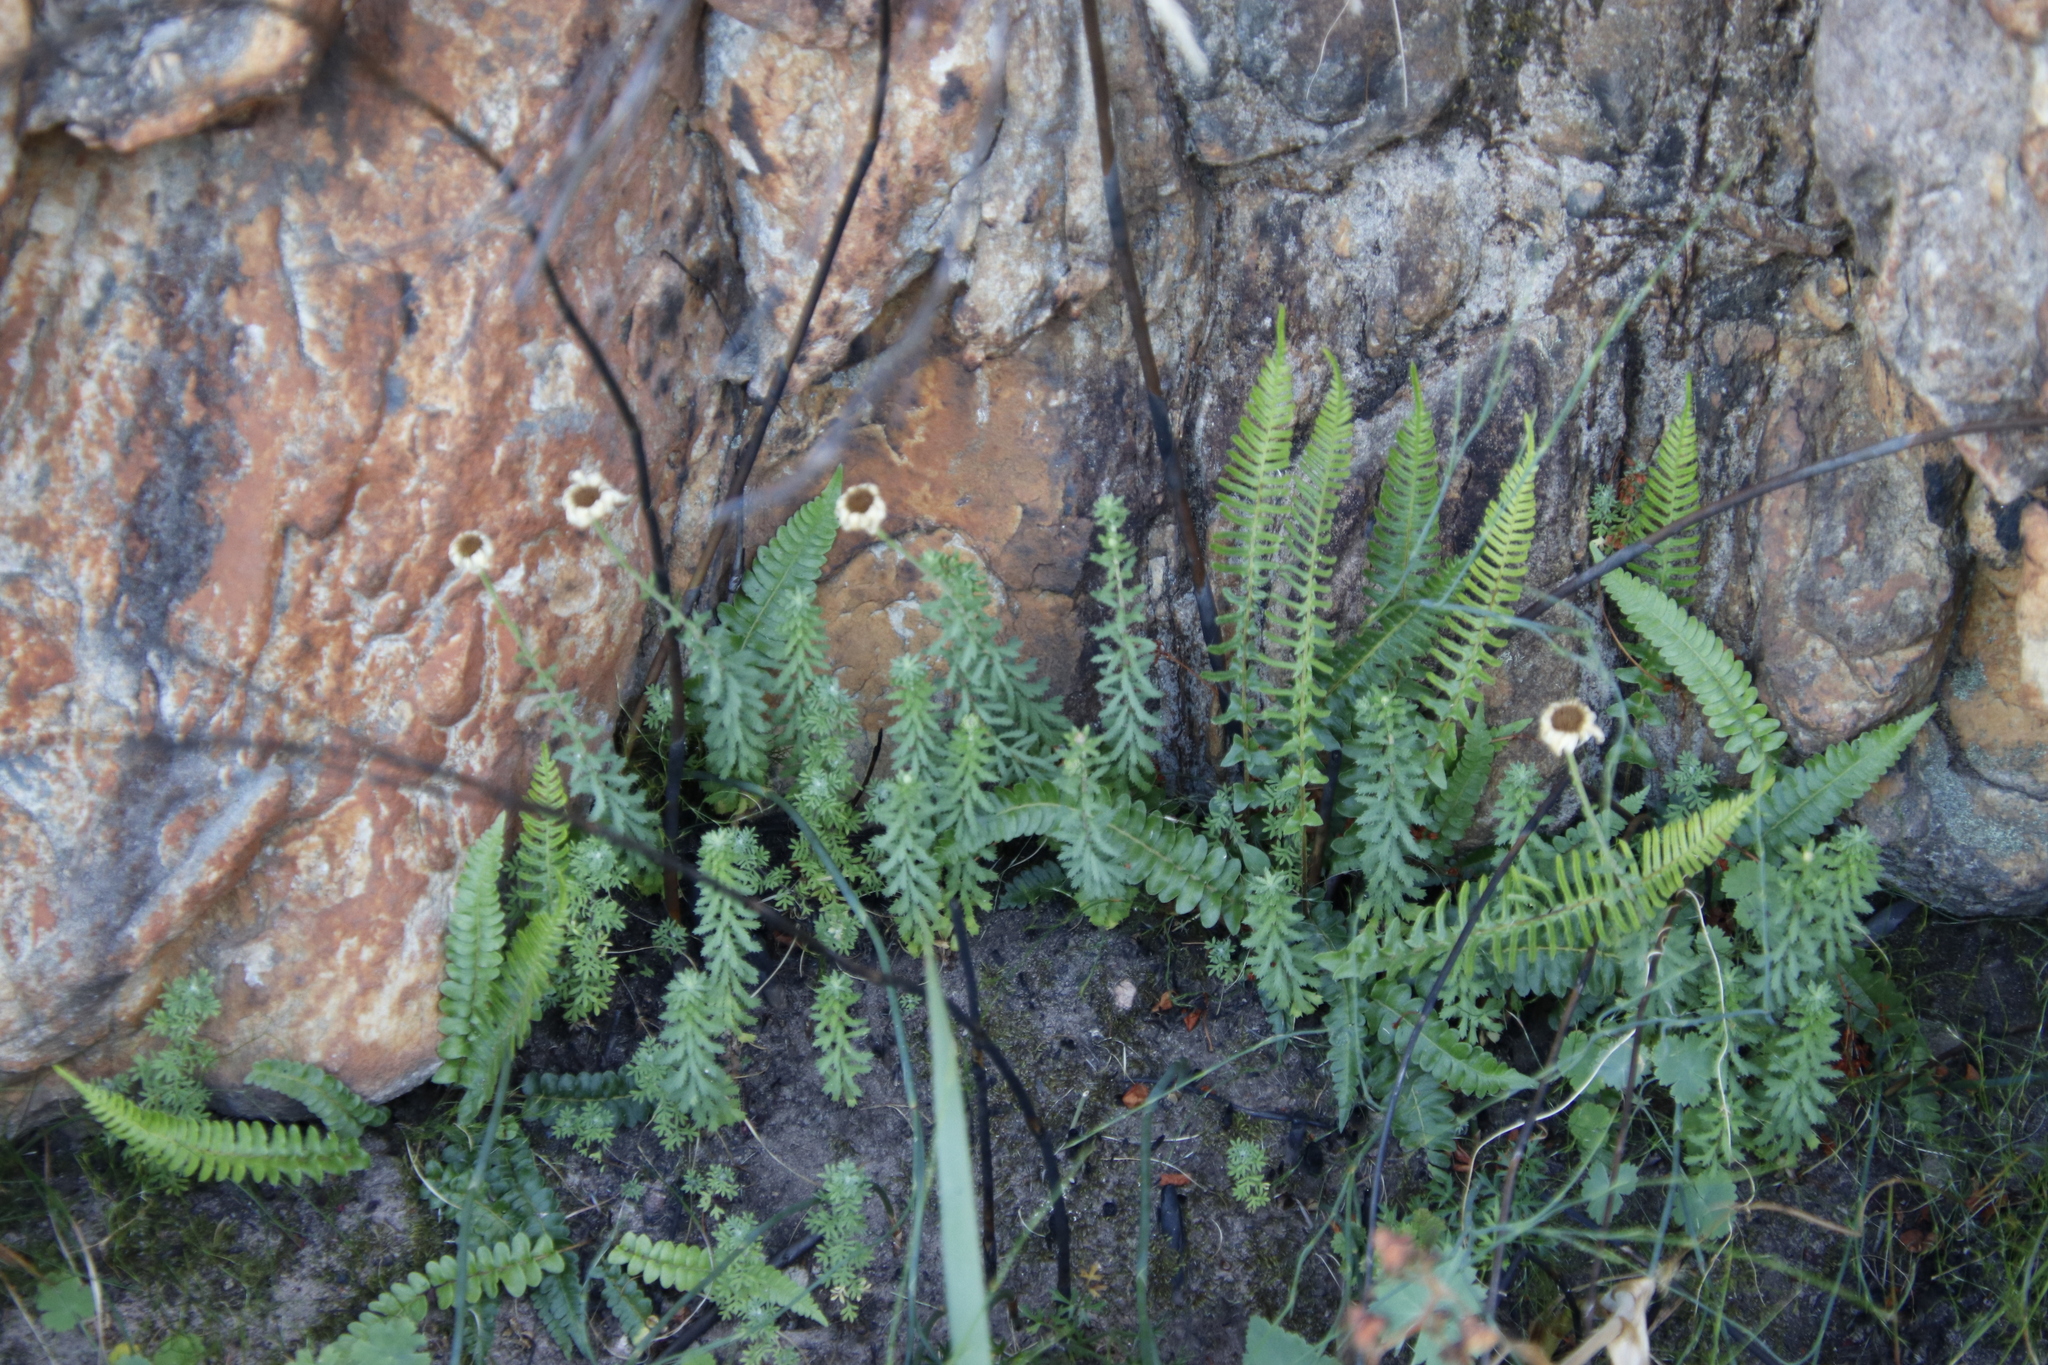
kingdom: Plantae
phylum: Tracheophyta
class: Magnoliopsida
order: Asterales
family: Asteraceae
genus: Osmitopsis
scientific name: Osmitopsis pinnatifida
